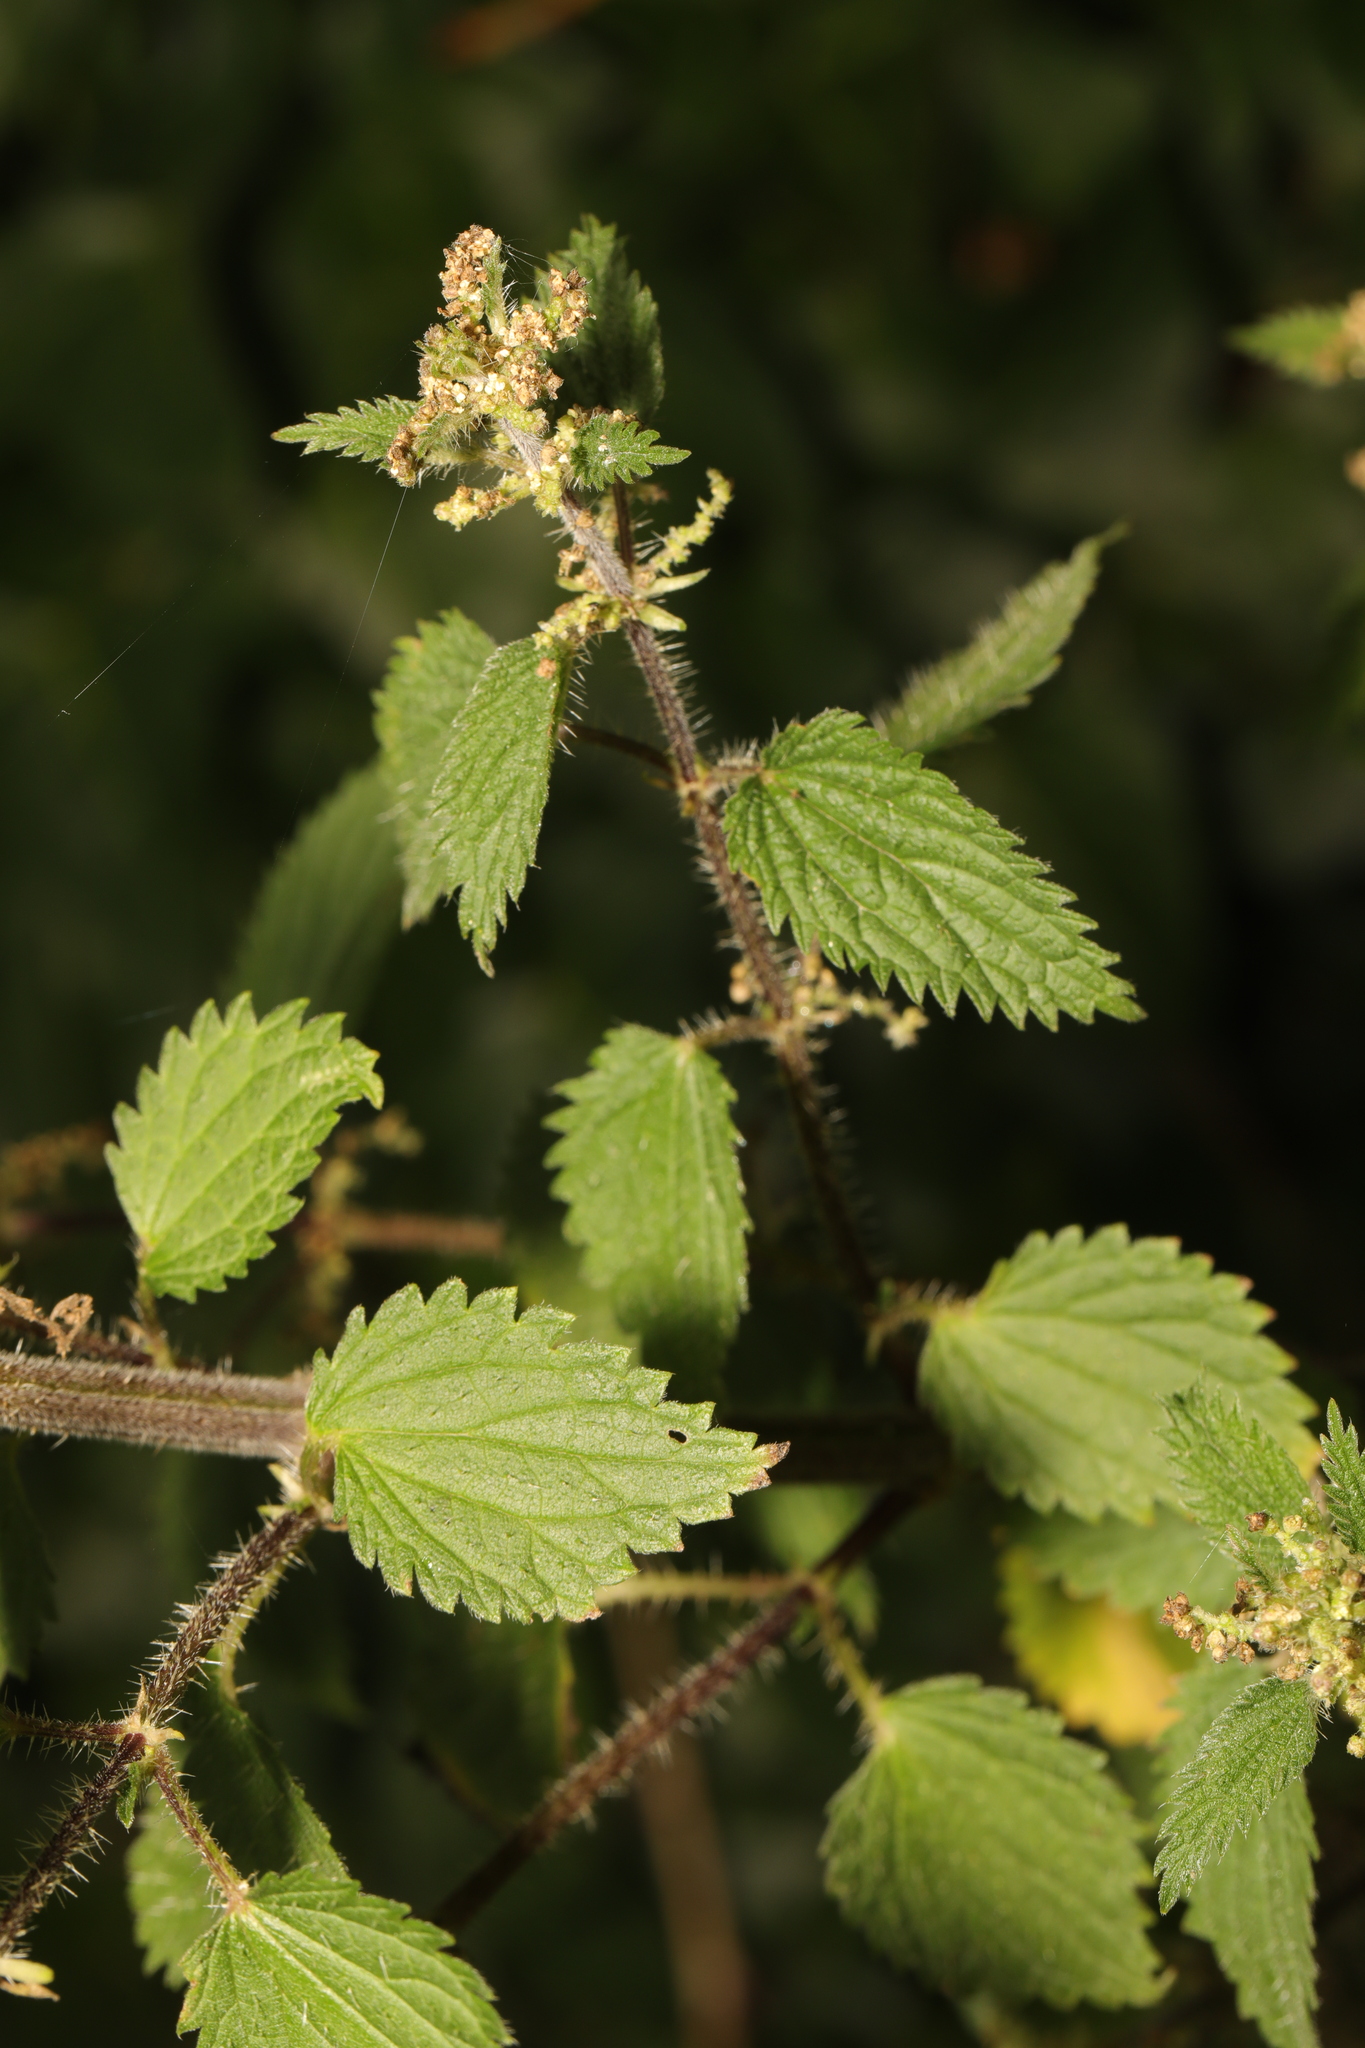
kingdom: Plantae
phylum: Tracheophyta
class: Magnoliopsida
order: Rosales
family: Urticaceae
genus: Urtica
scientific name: Urtica dioica
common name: Common nettle
